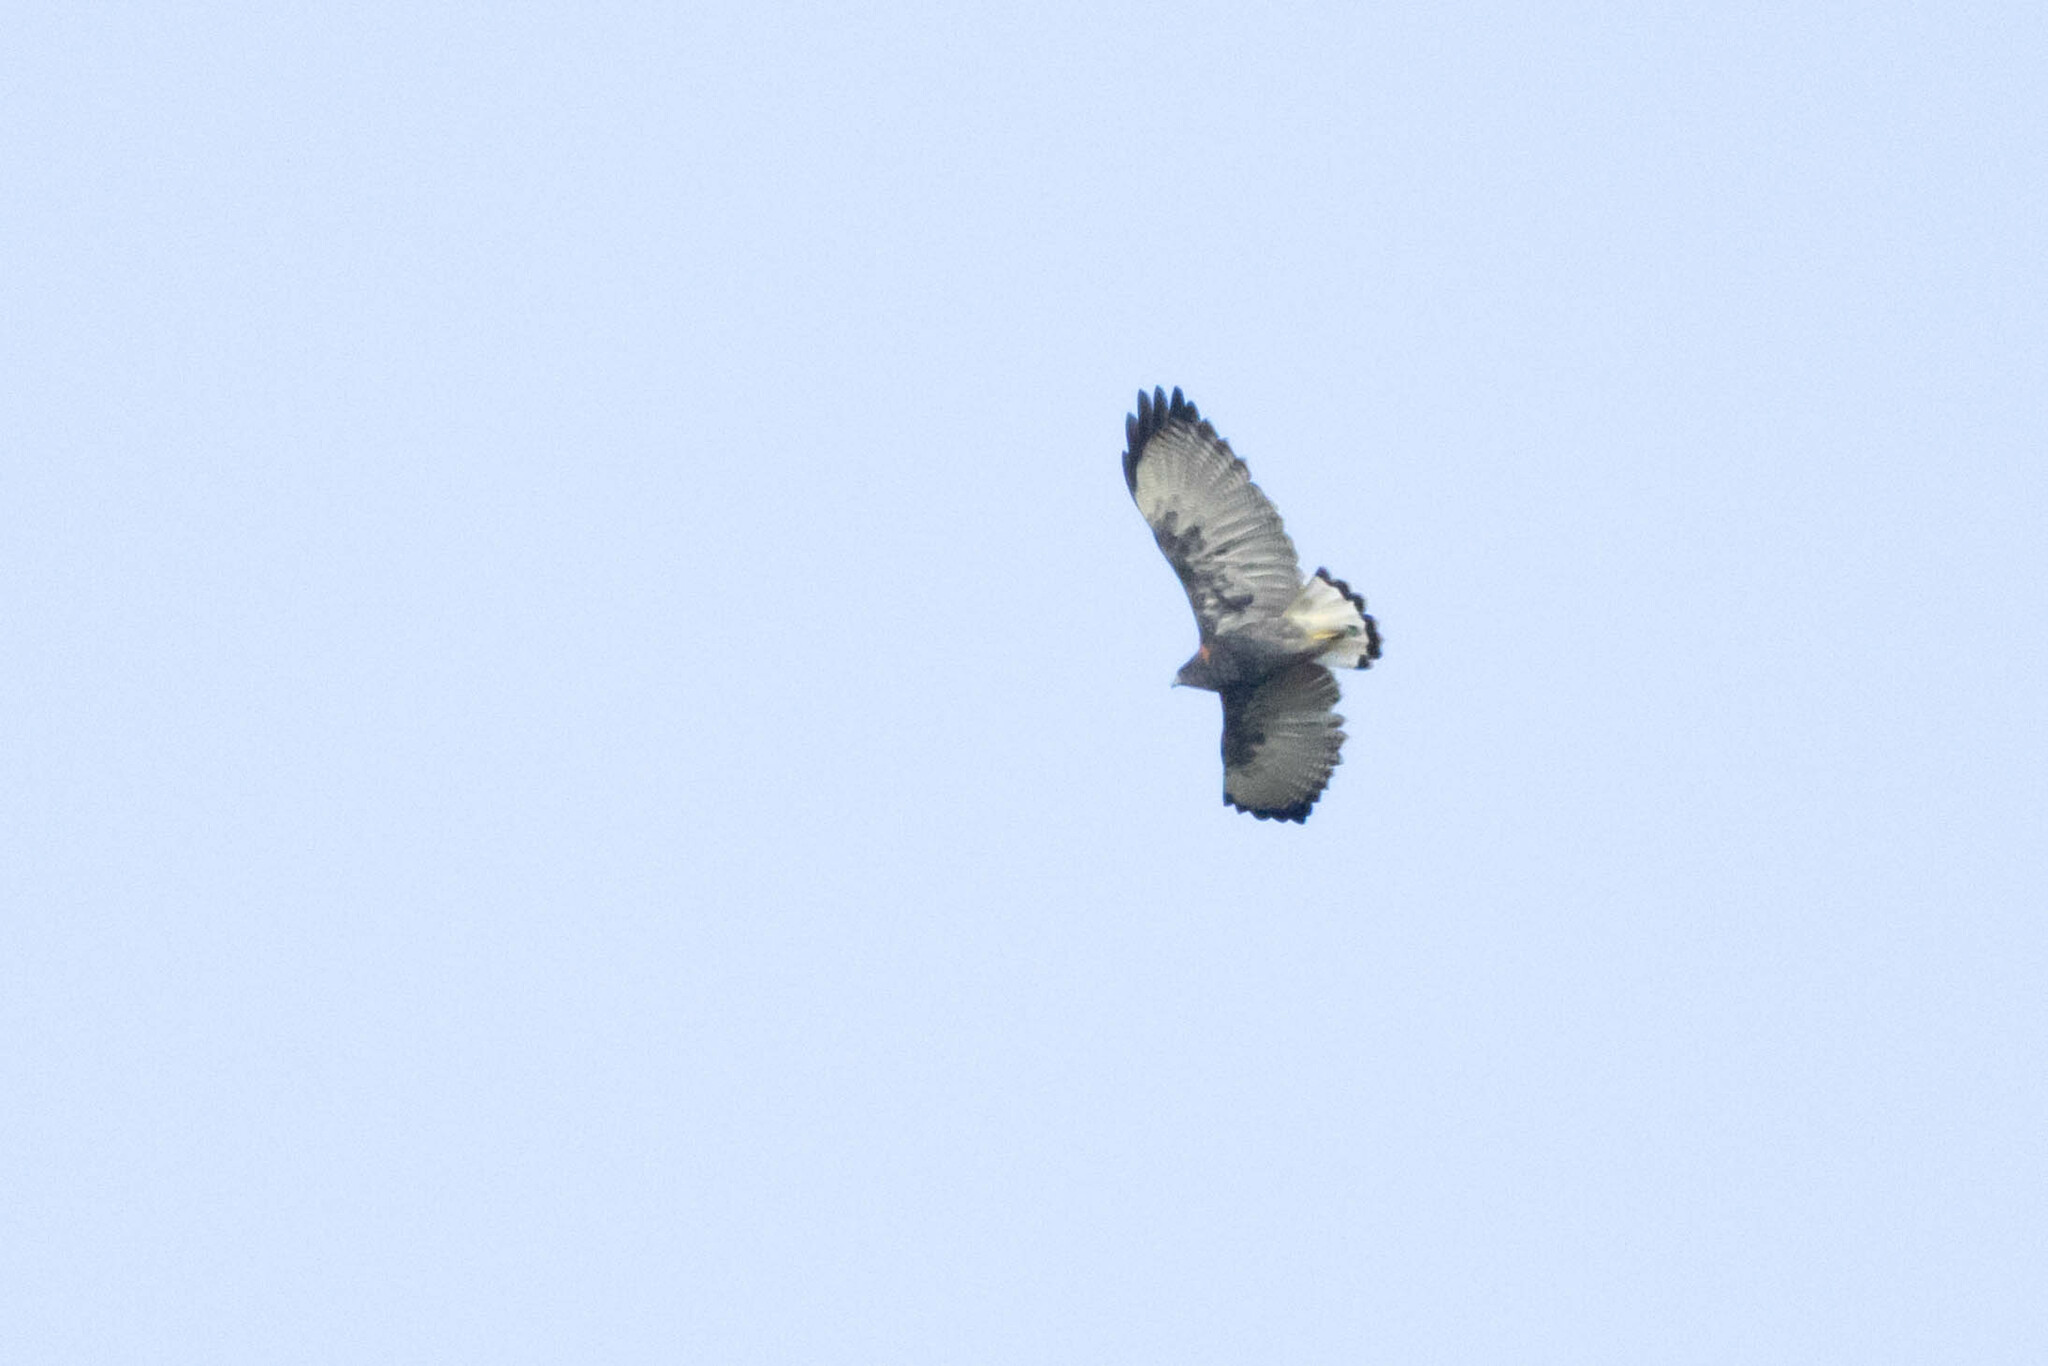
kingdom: Animalia
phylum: Chordata
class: Aves
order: Accipitriformes
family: Accipitridae
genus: Buteo
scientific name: Buteo polyosoma
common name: Variable hawk
